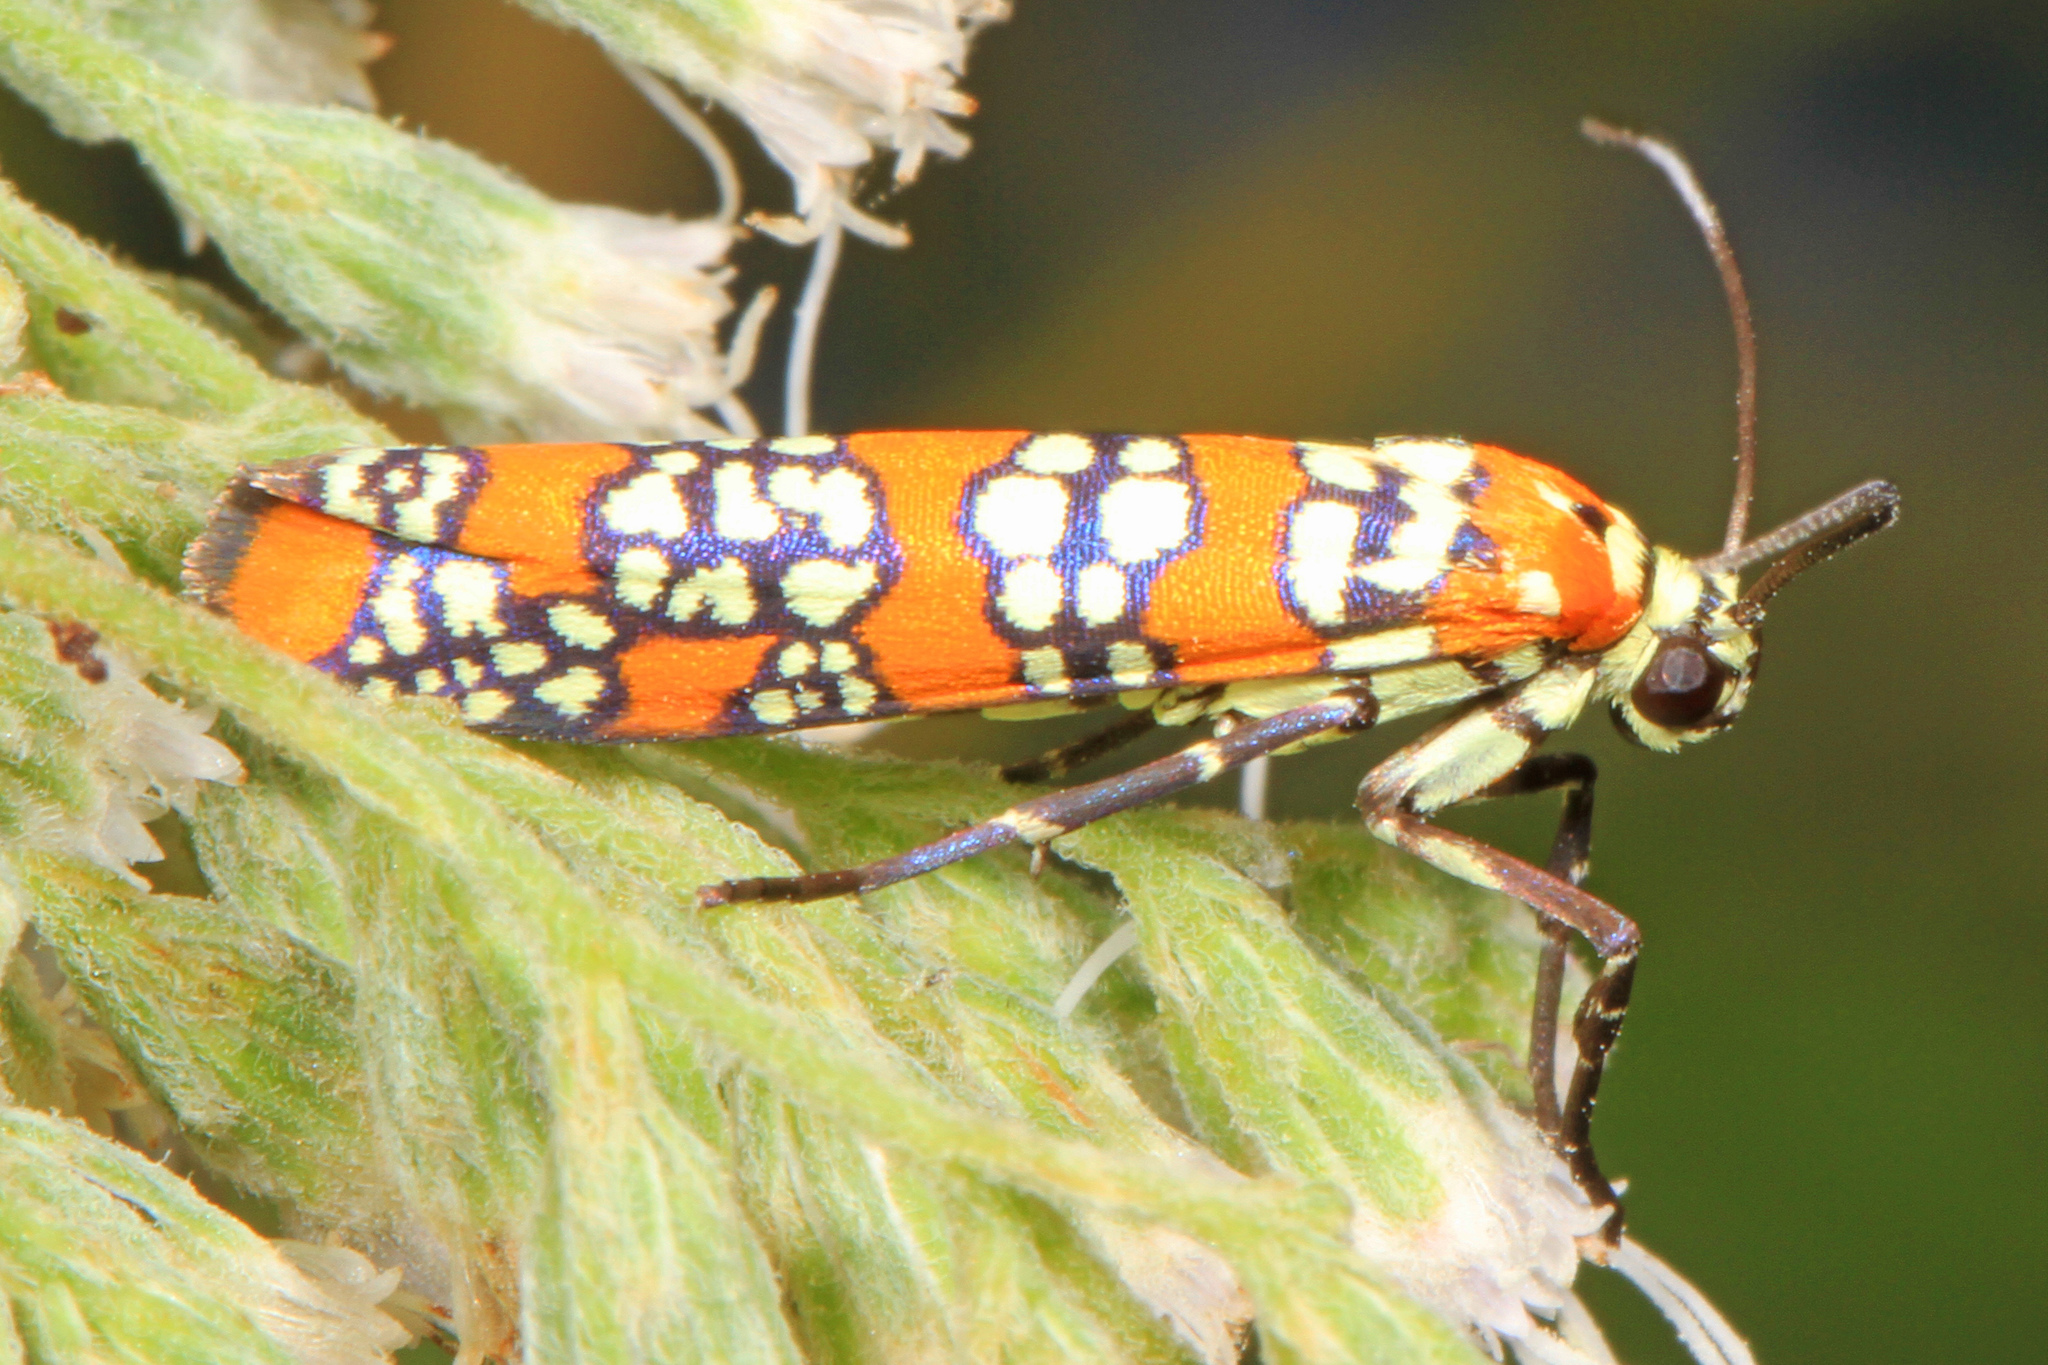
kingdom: Animalia
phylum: Arthropoda
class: Insecta
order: Lepidoptera
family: Attevidae
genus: Atteva
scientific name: Atteva punctella
